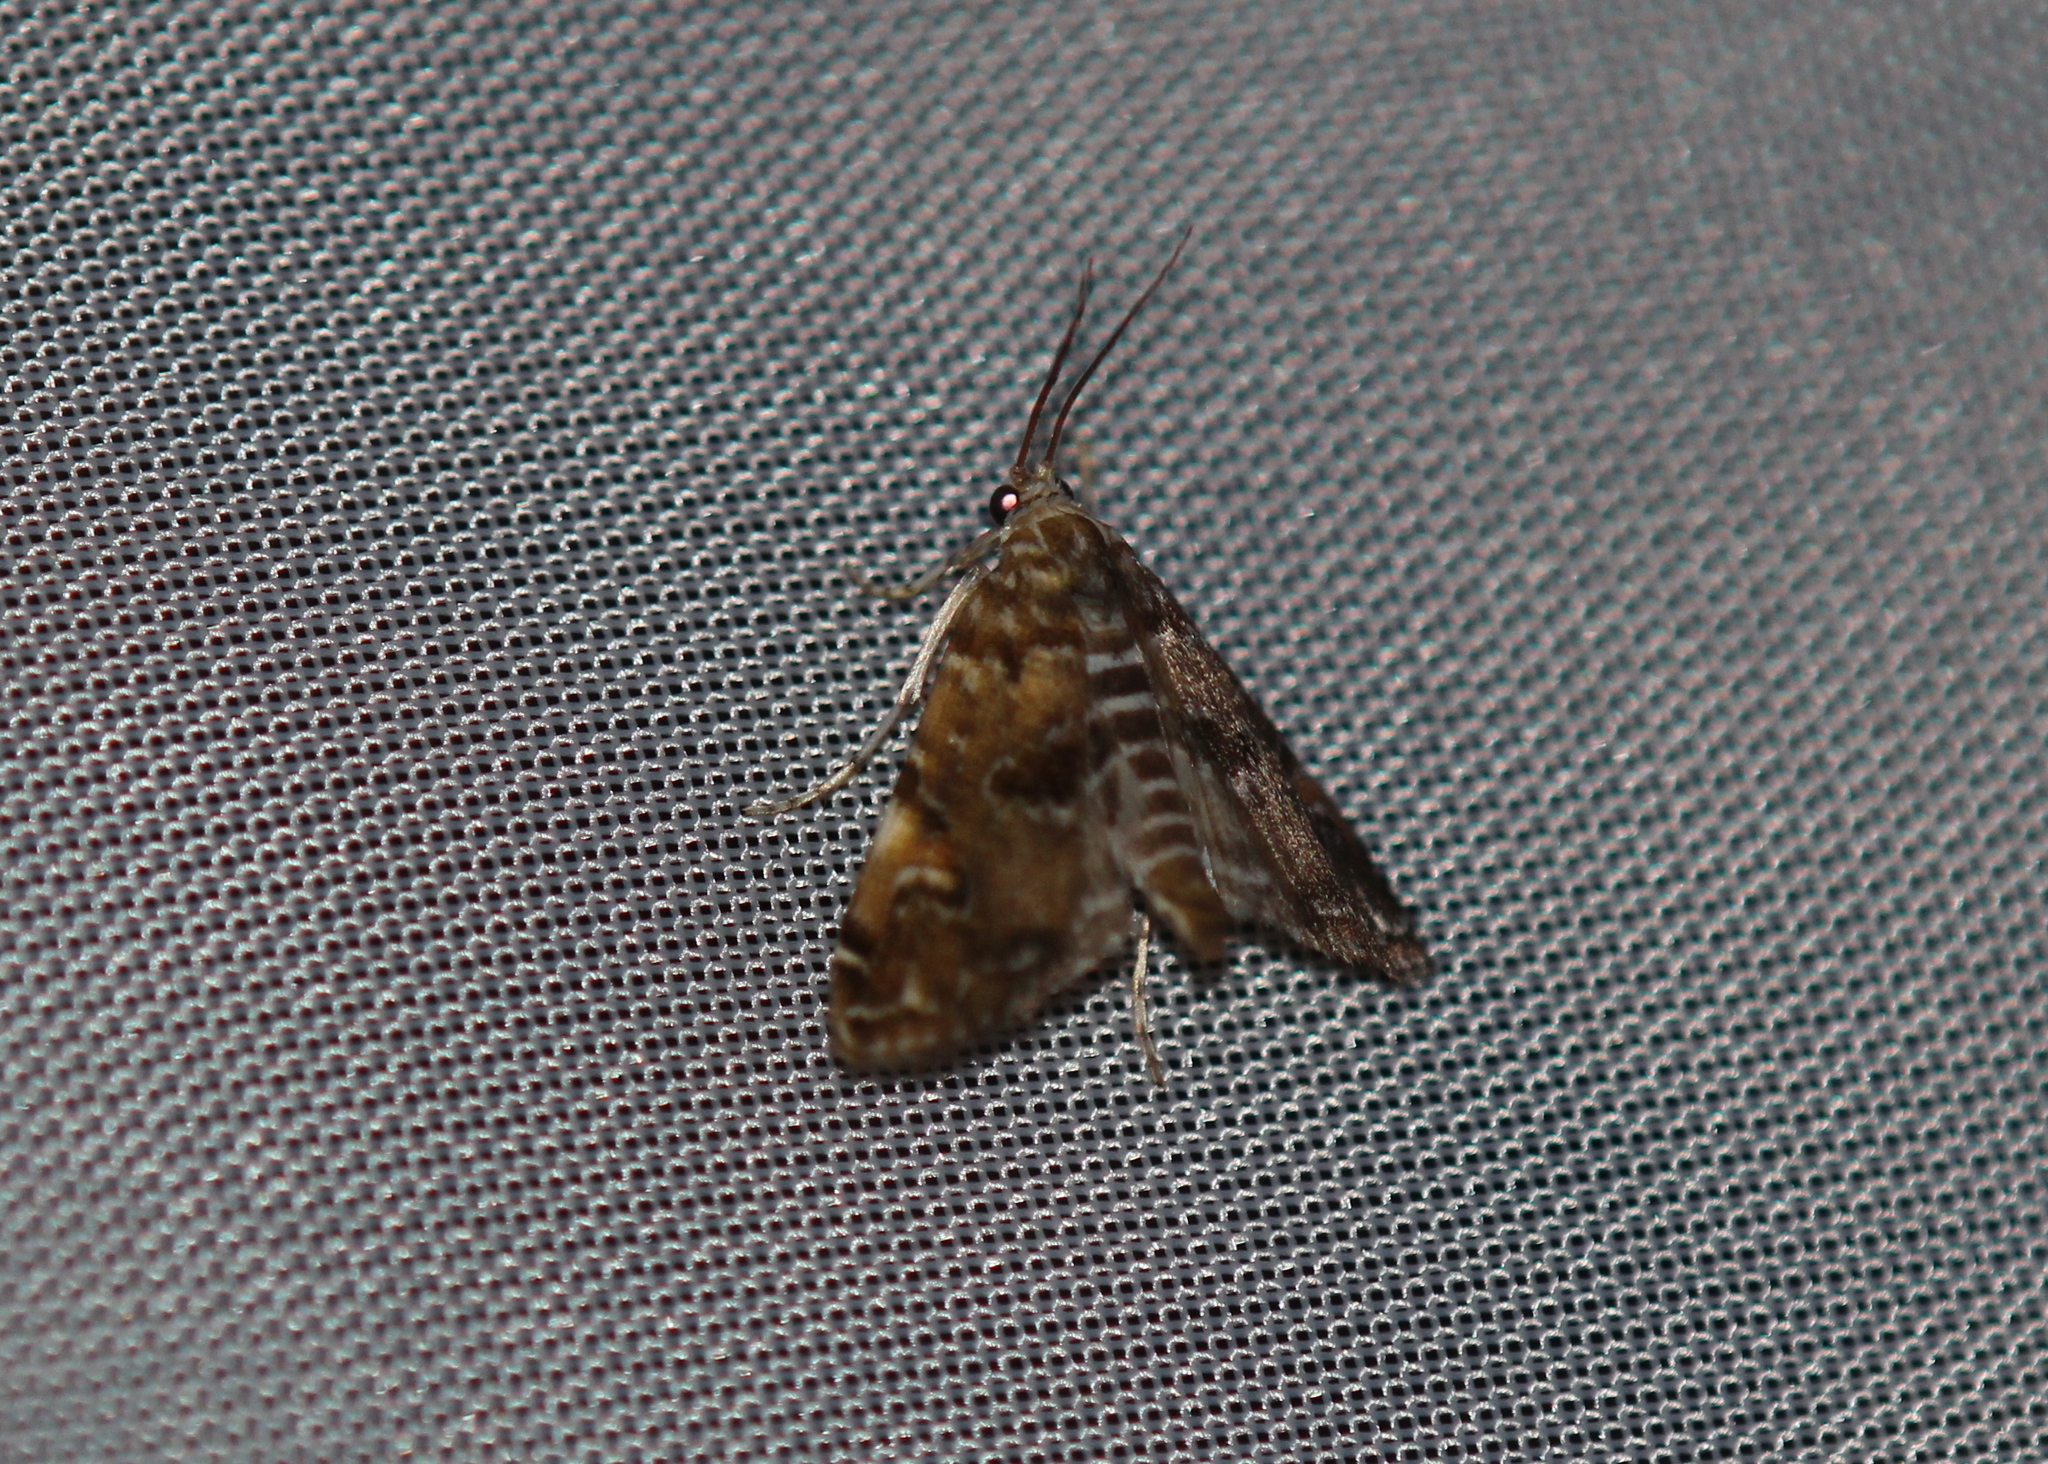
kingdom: Animalia
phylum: Arthropoda
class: Insecta
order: Lepidoptera
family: Crambidae
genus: Elophila
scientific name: Elophila gyralis
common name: Waterlily borer moth
